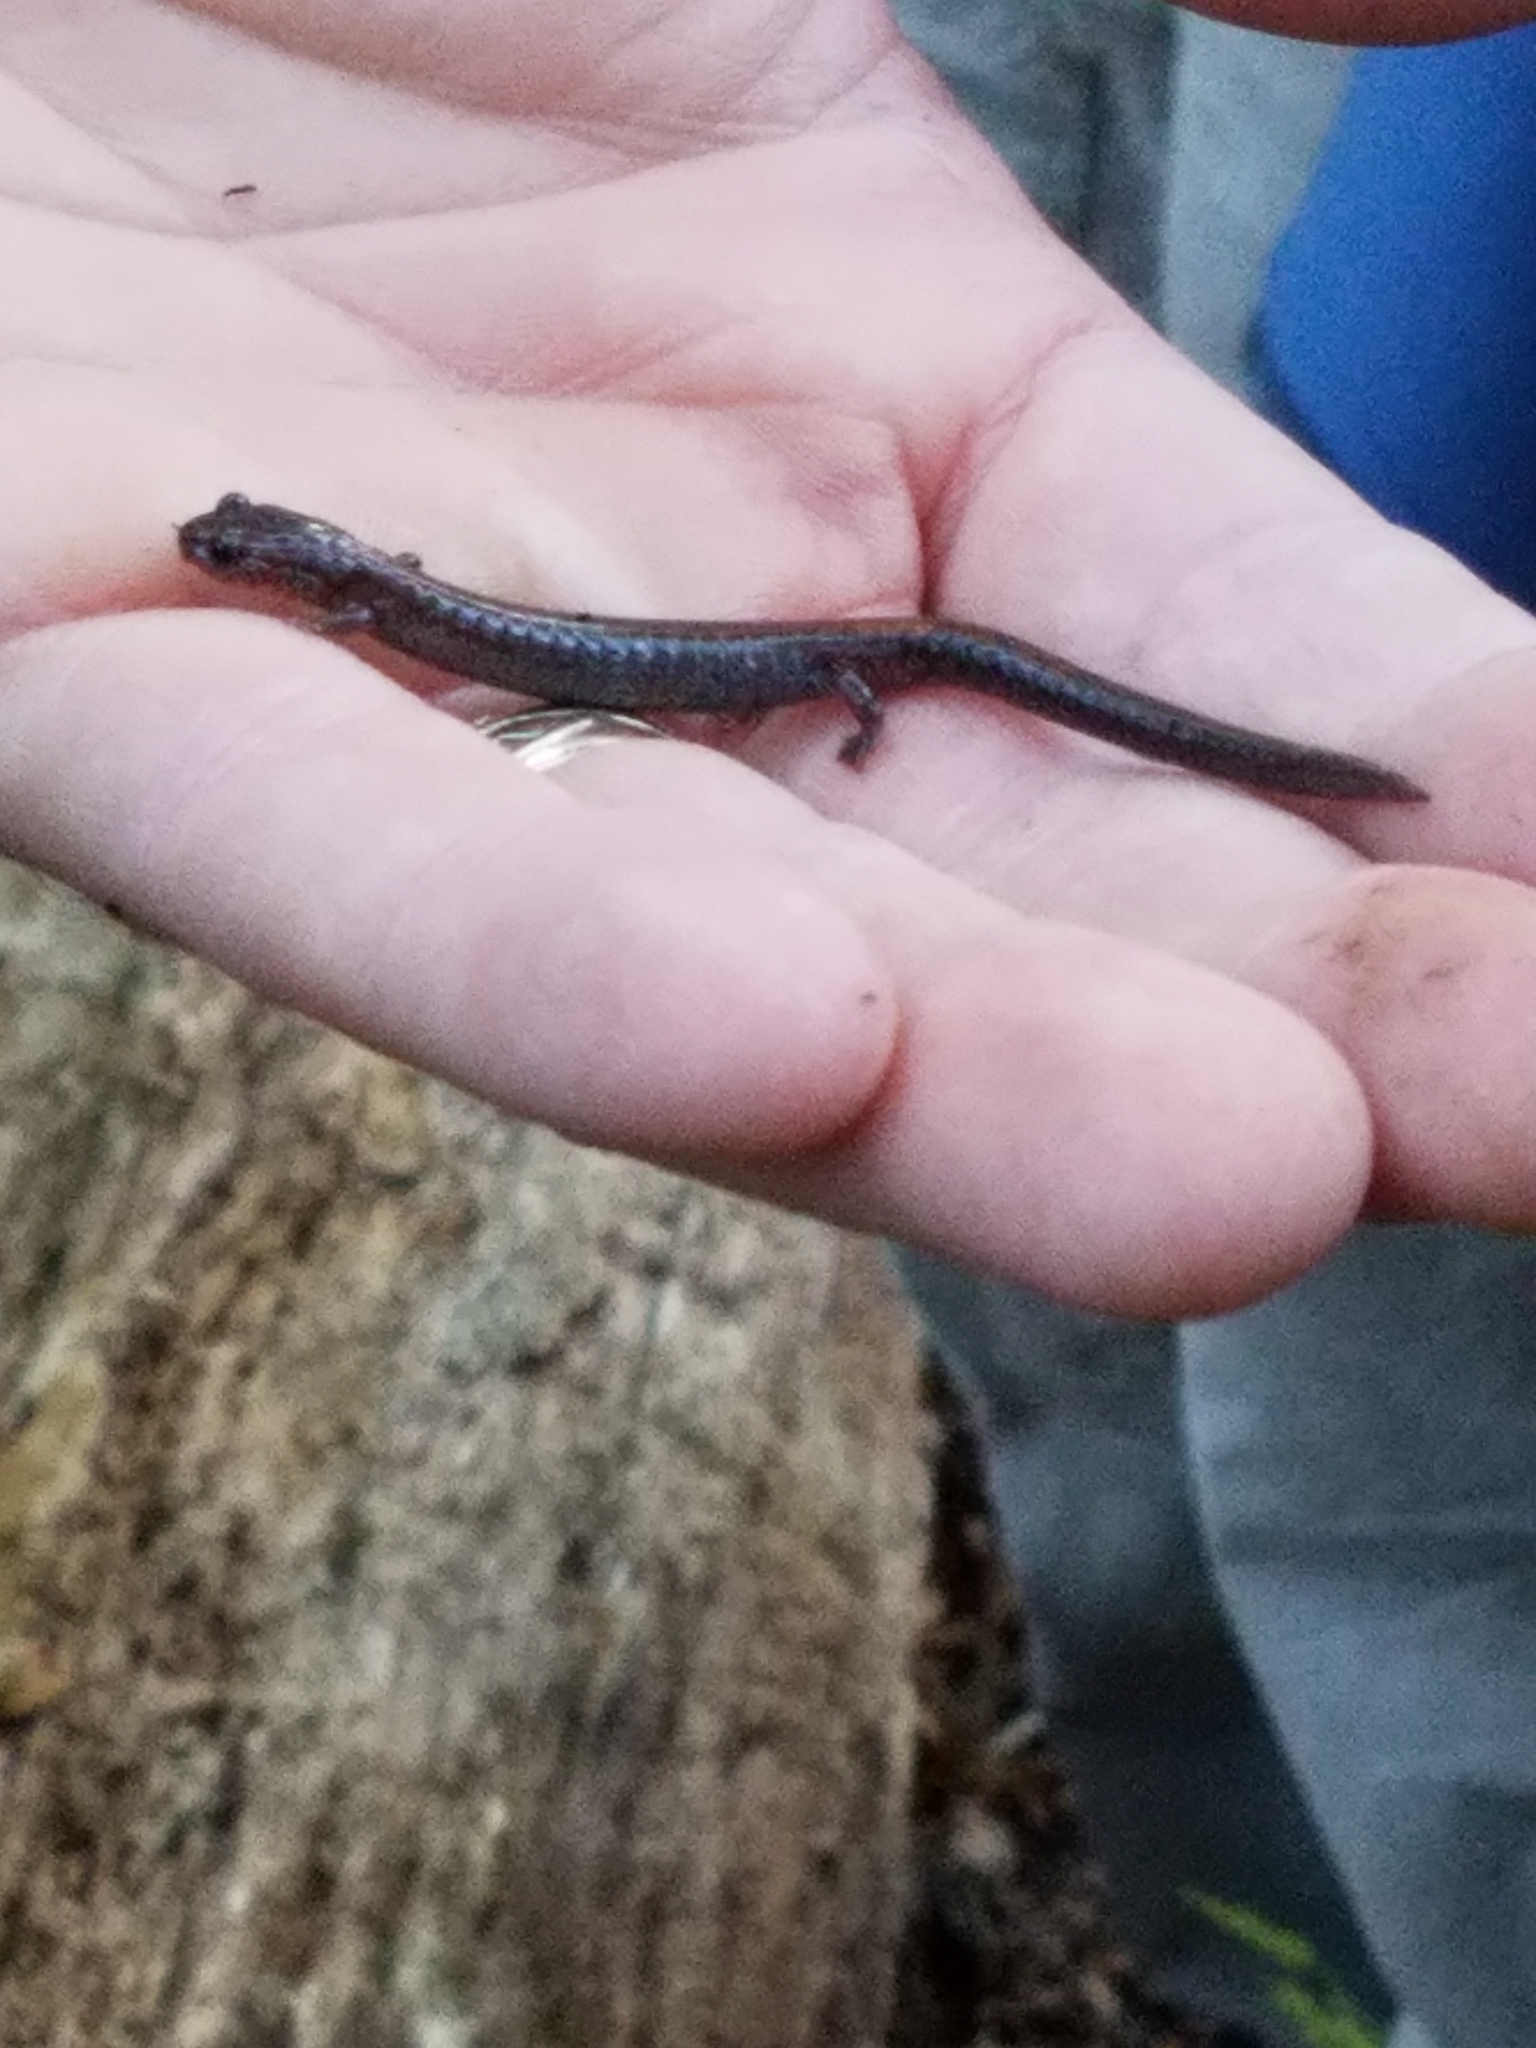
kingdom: Animalia
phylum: Chordata
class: Amphibia
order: Caudata
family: Plethodontidae
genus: Plethodon
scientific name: Plethodon cinereus
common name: Redback salamander
